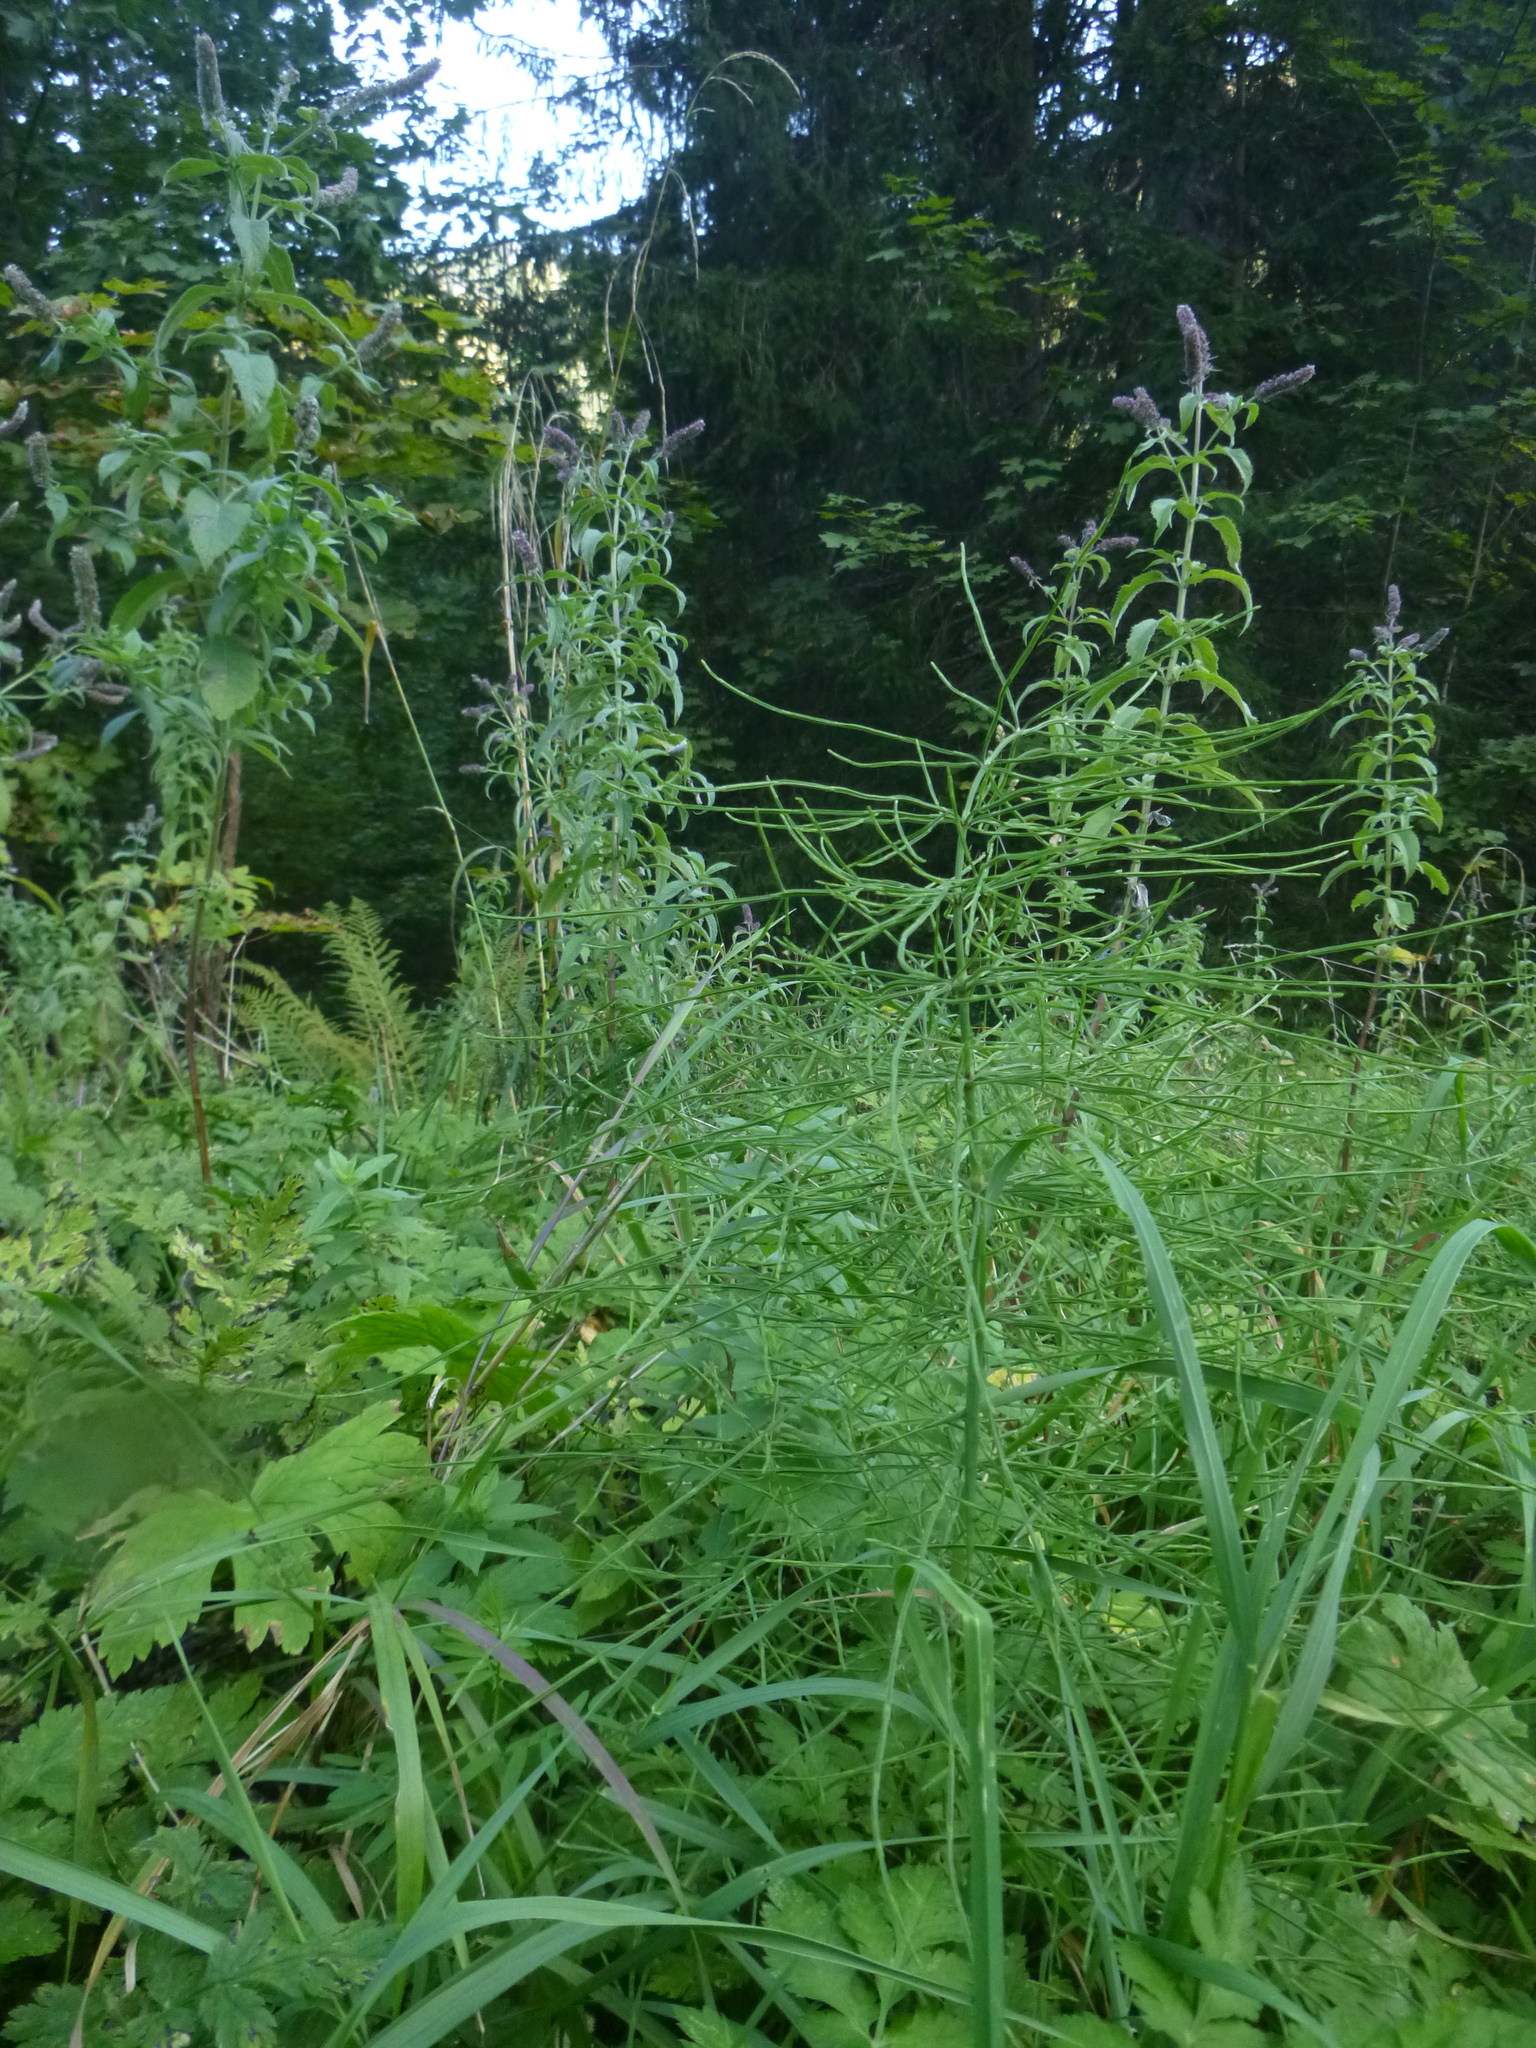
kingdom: Plantae
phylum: Tracheophyta
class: Polypodiopsida
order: Equisetales
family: Equisetaceae
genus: Equisetum
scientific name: Equisetum arvense
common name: Field horsetail
